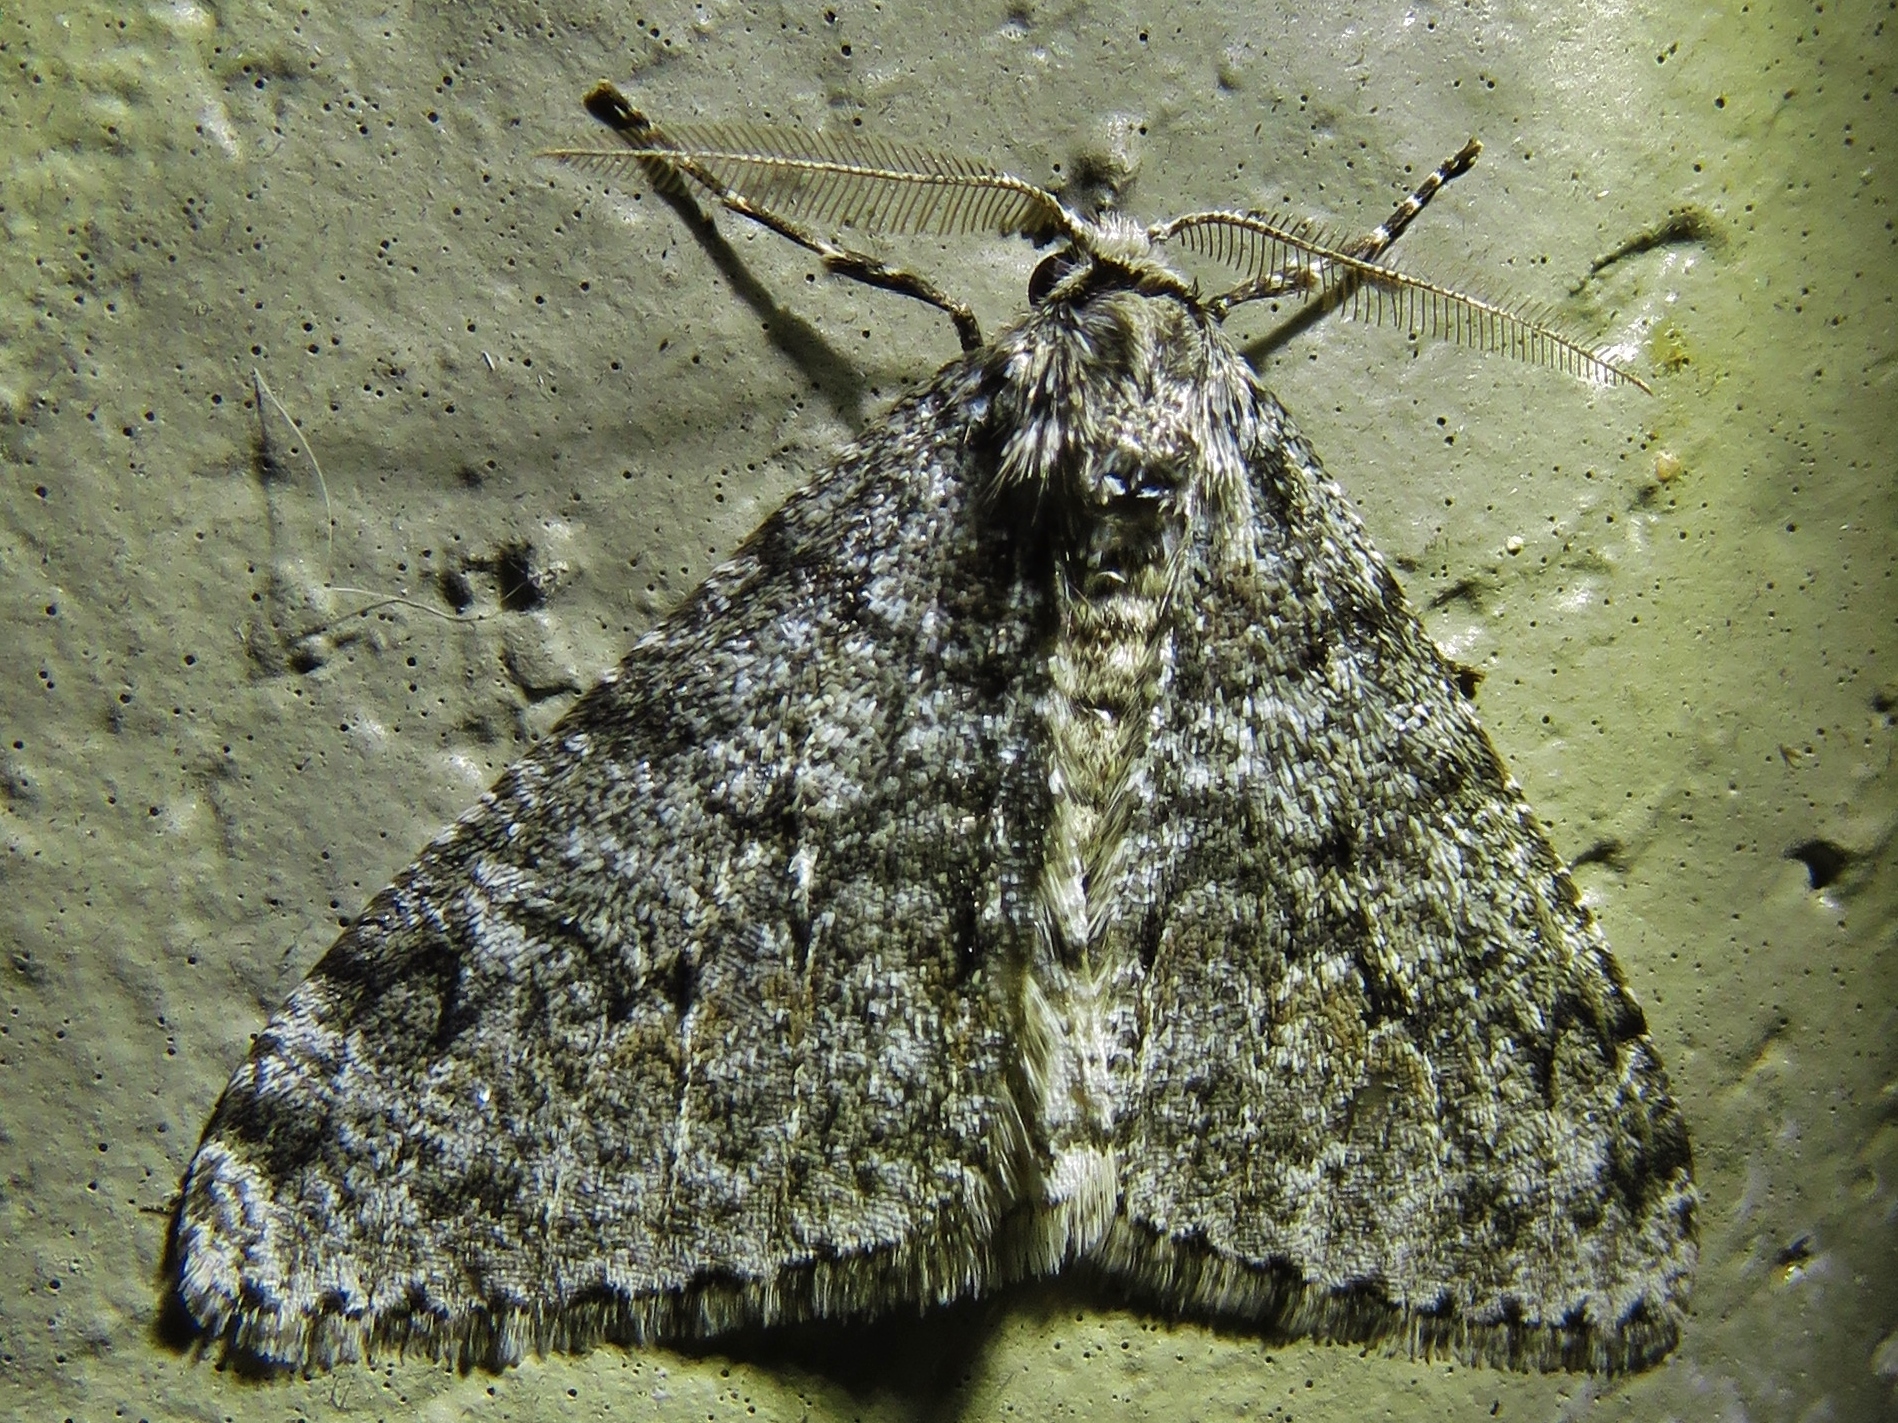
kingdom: Animalia
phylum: Arthropoda
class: Insecta
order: Lepidoptera
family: Geometridae
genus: Phigalia
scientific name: Phigalia denticulata
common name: Toothed phigalia
